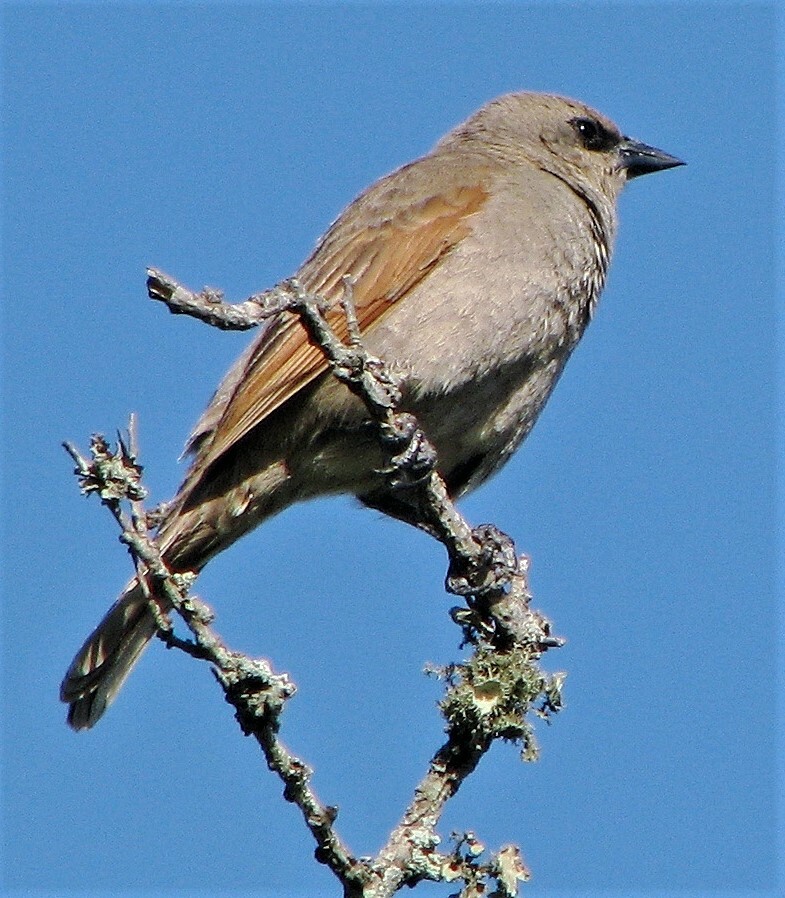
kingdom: Animalia
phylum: Chordata
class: Aves
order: Passeriformes
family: Icteridae
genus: Agelaioides
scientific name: Agelaioides badius
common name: Baywing
